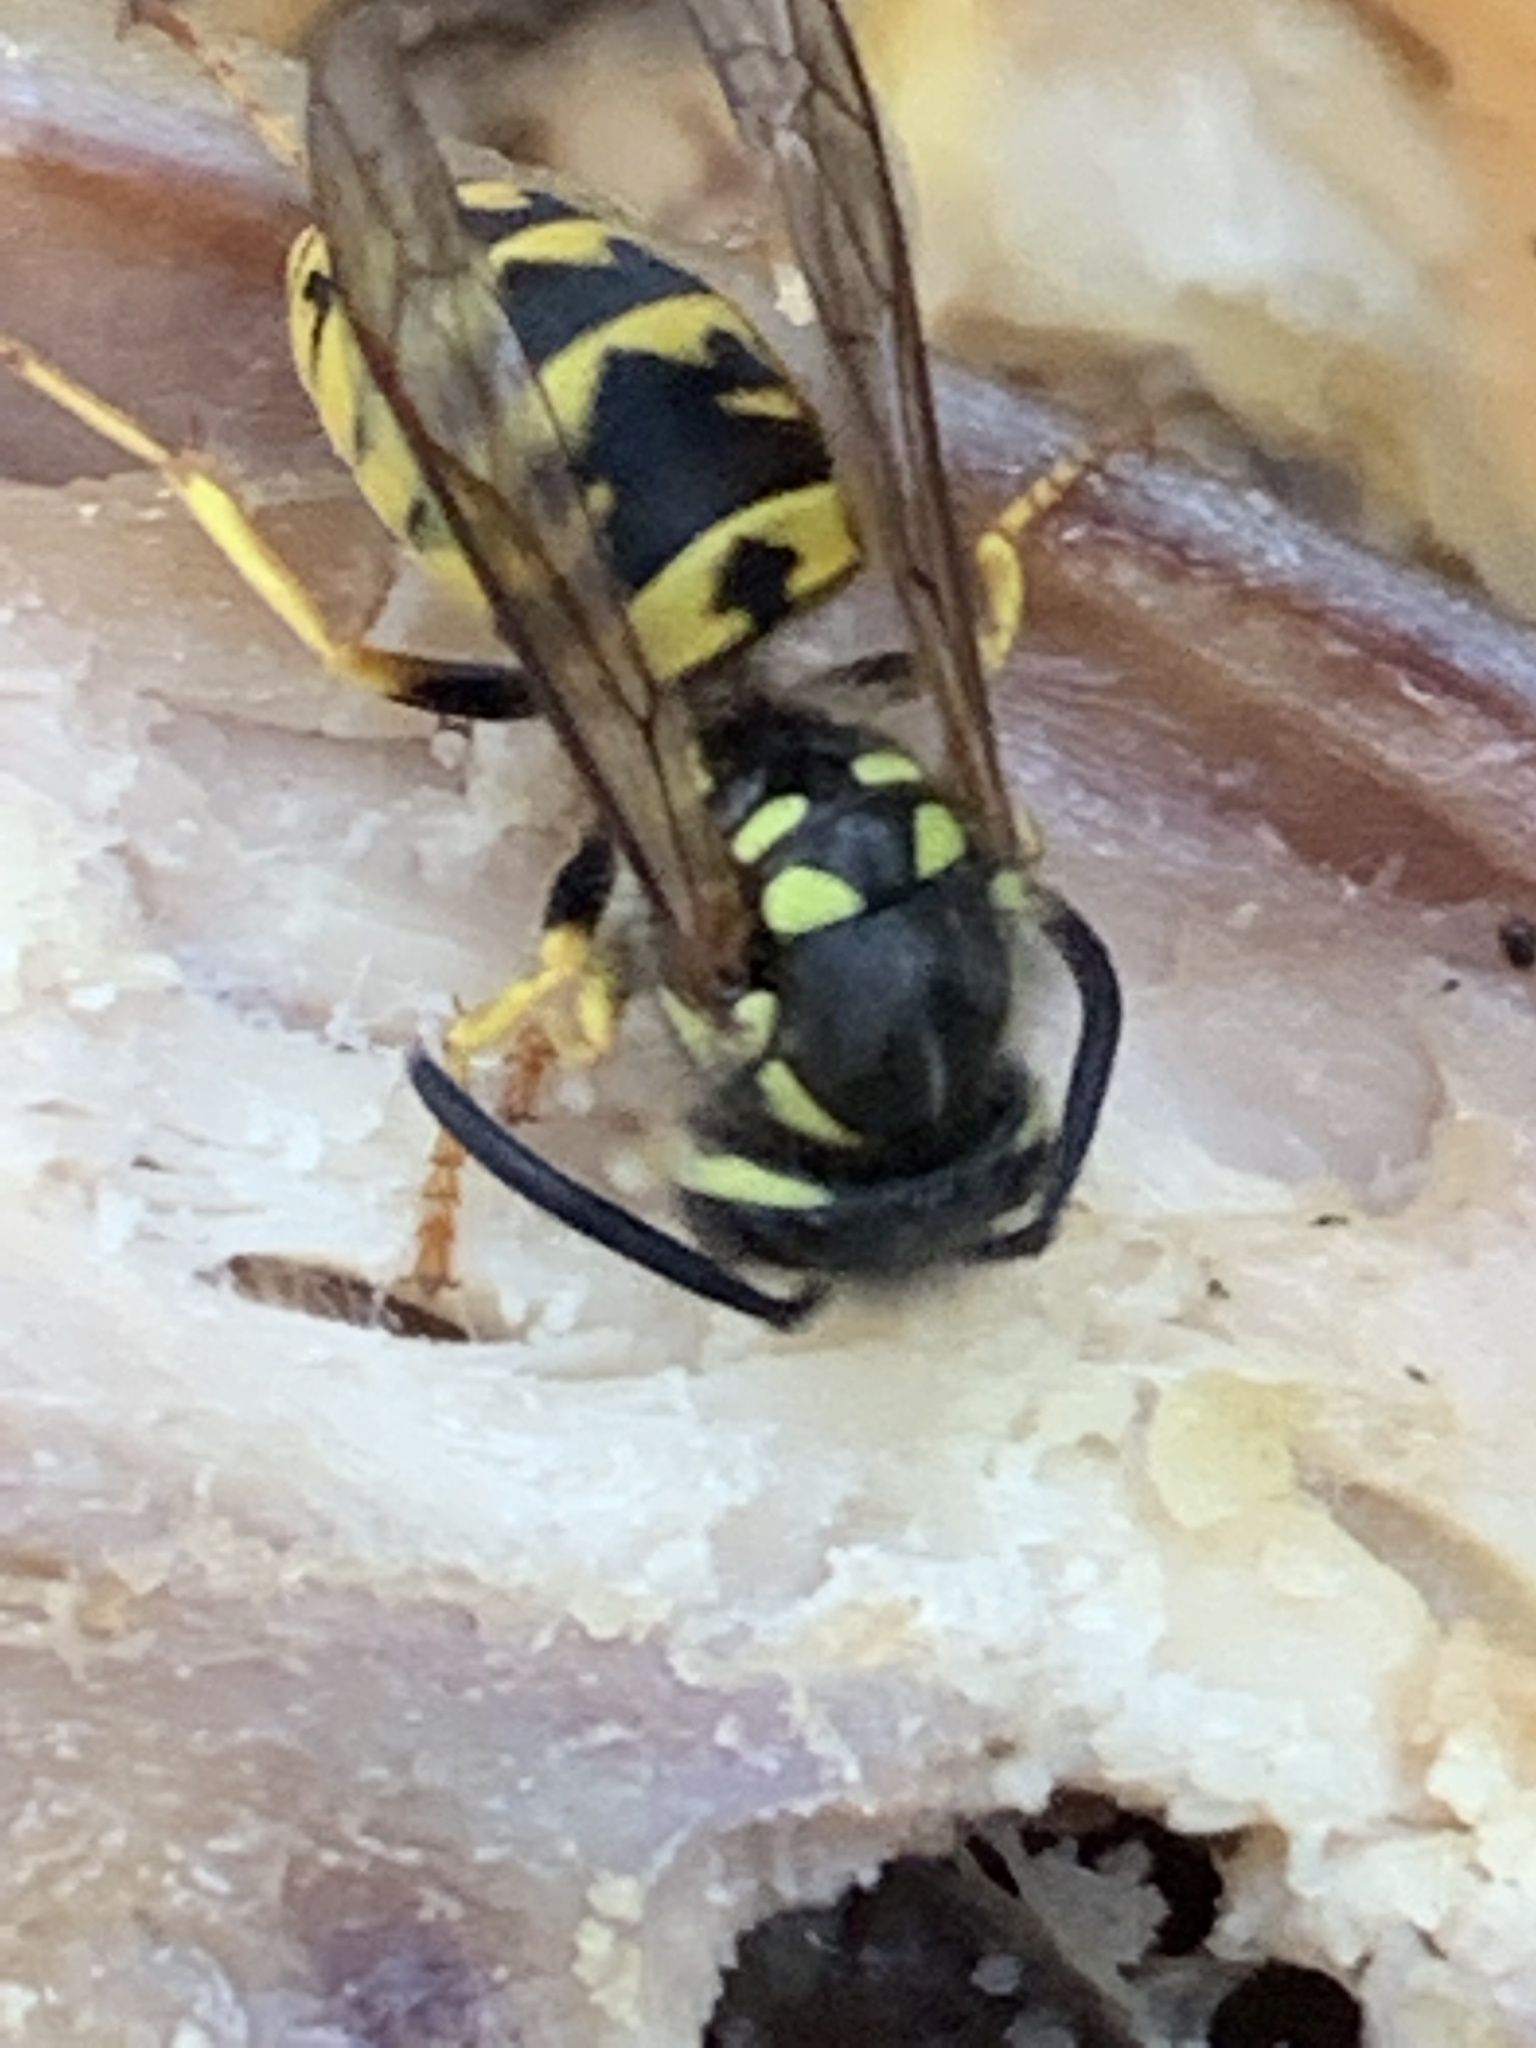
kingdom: Animalia
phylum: Arthropoda
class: Insecta
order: Hymenoptera
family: Vespidae
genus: Vespula
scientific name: Vespula vulgaris
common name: Common wasp
